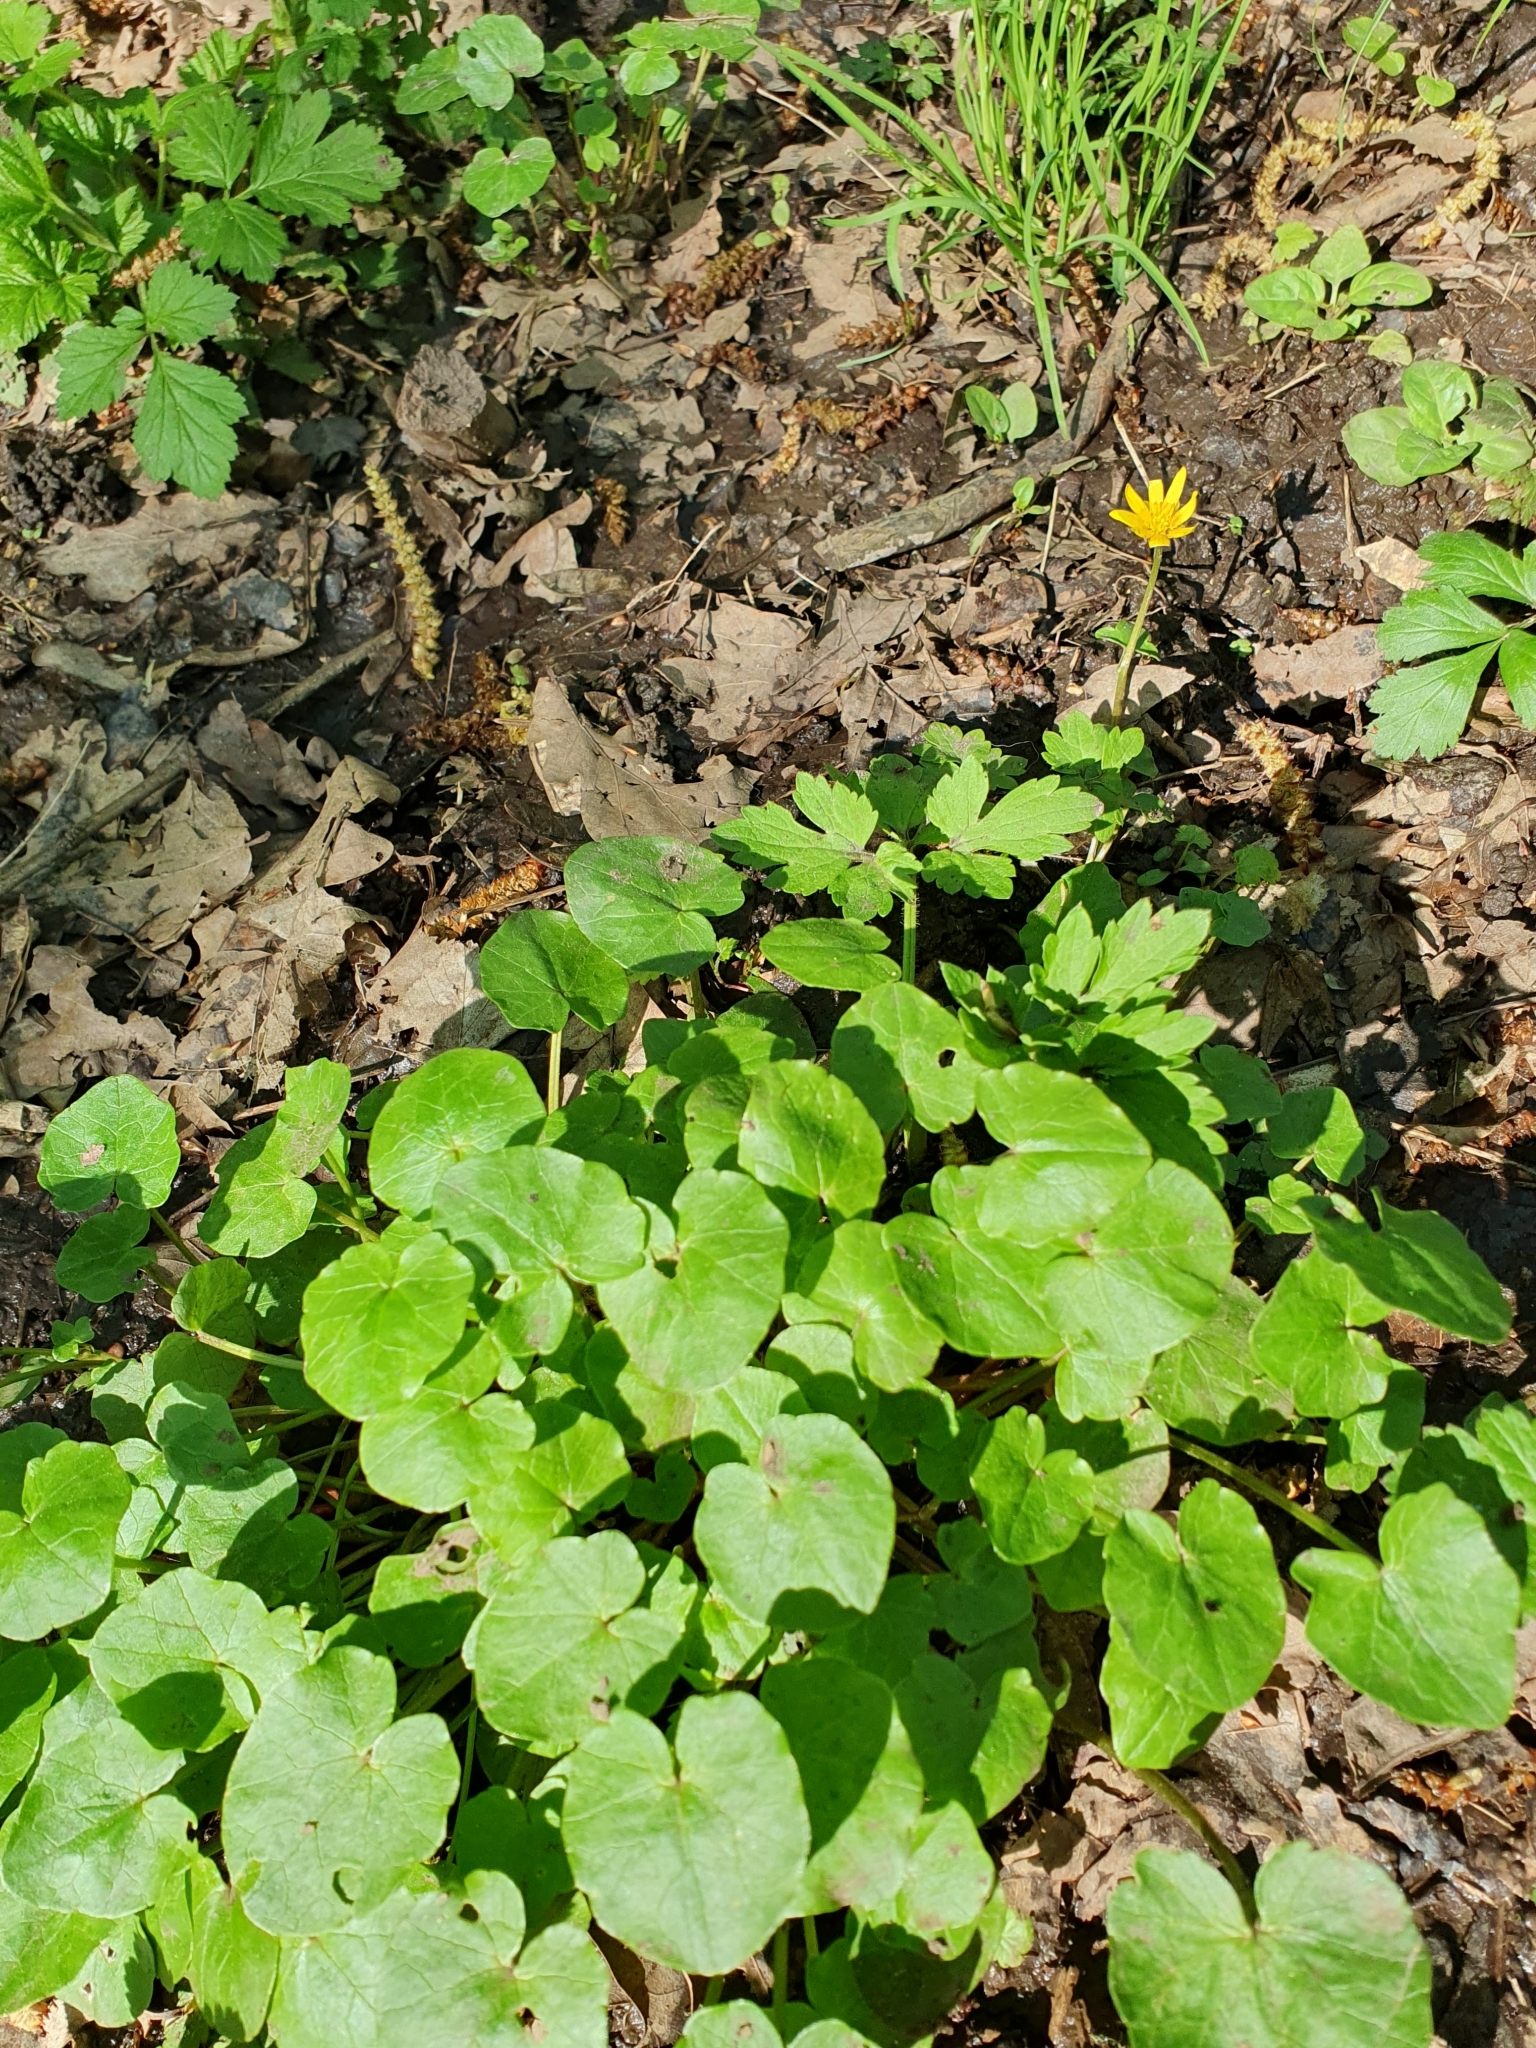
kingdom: Plantae
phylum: Tracheophyta
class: Magnoliopsida
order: Ranunculales
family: Ranunculaceae
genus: Ficaria
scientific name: Ficaria verna
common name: Lesser celandine
